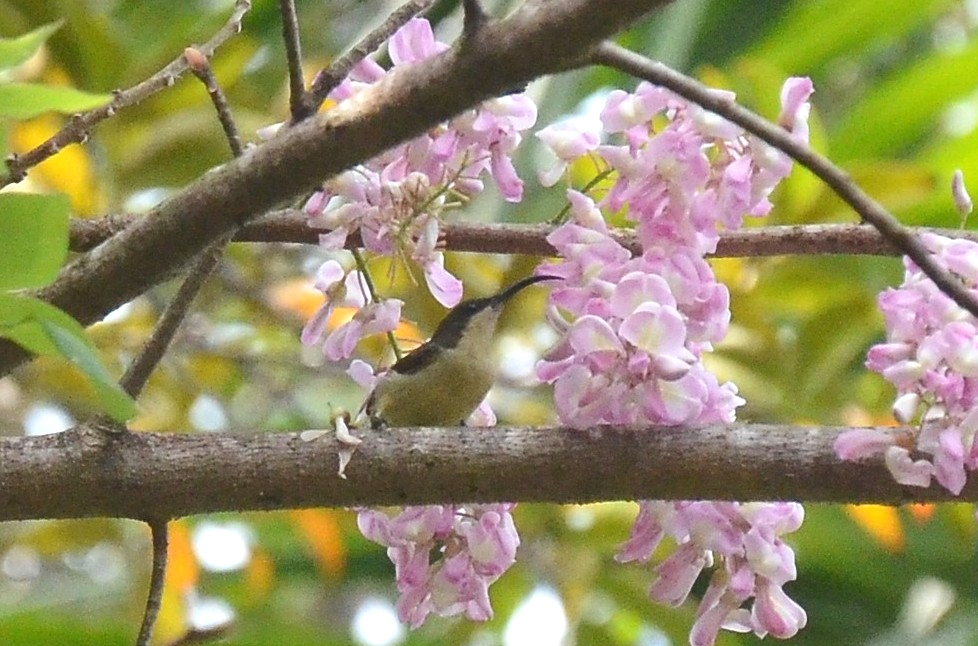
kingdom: Animalia
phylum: Chordata
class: Aves
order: Passeriformes
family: Nectariniidae
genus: Cinnyris
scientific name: Cinnyris lotenius
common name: Loten's sunbird
